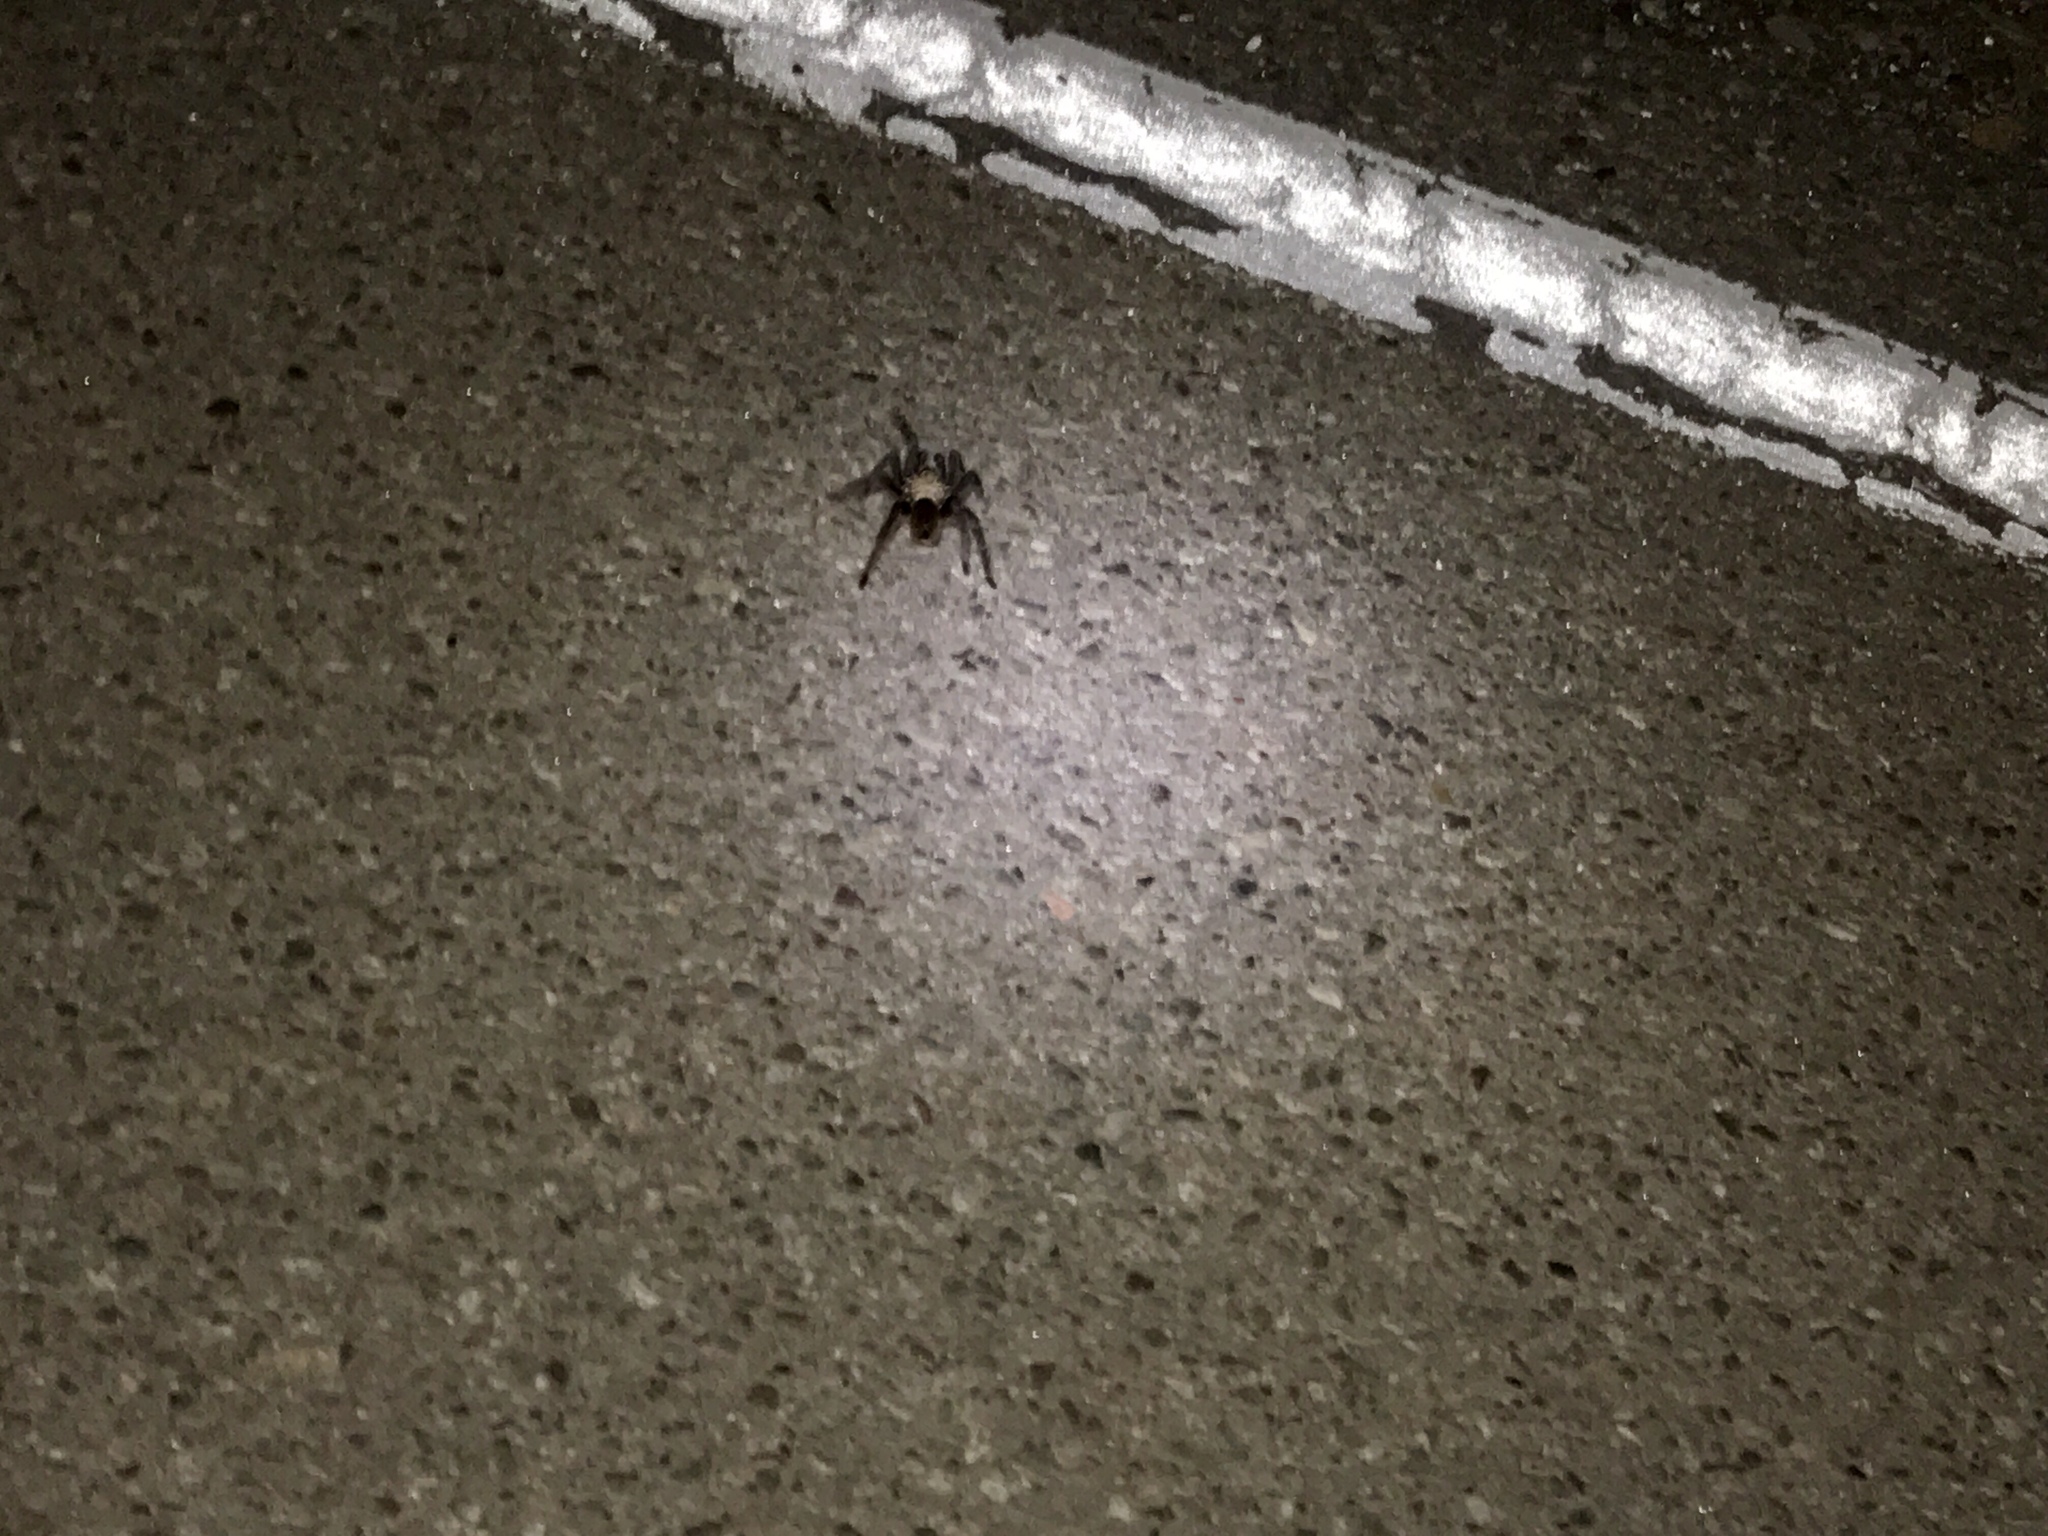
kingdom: Animalia
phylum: Arthropoda
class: Arachnida
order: Araneae
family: Theraphosidae
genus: Aphonopelma
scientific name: Aphonopelma chalcodes
